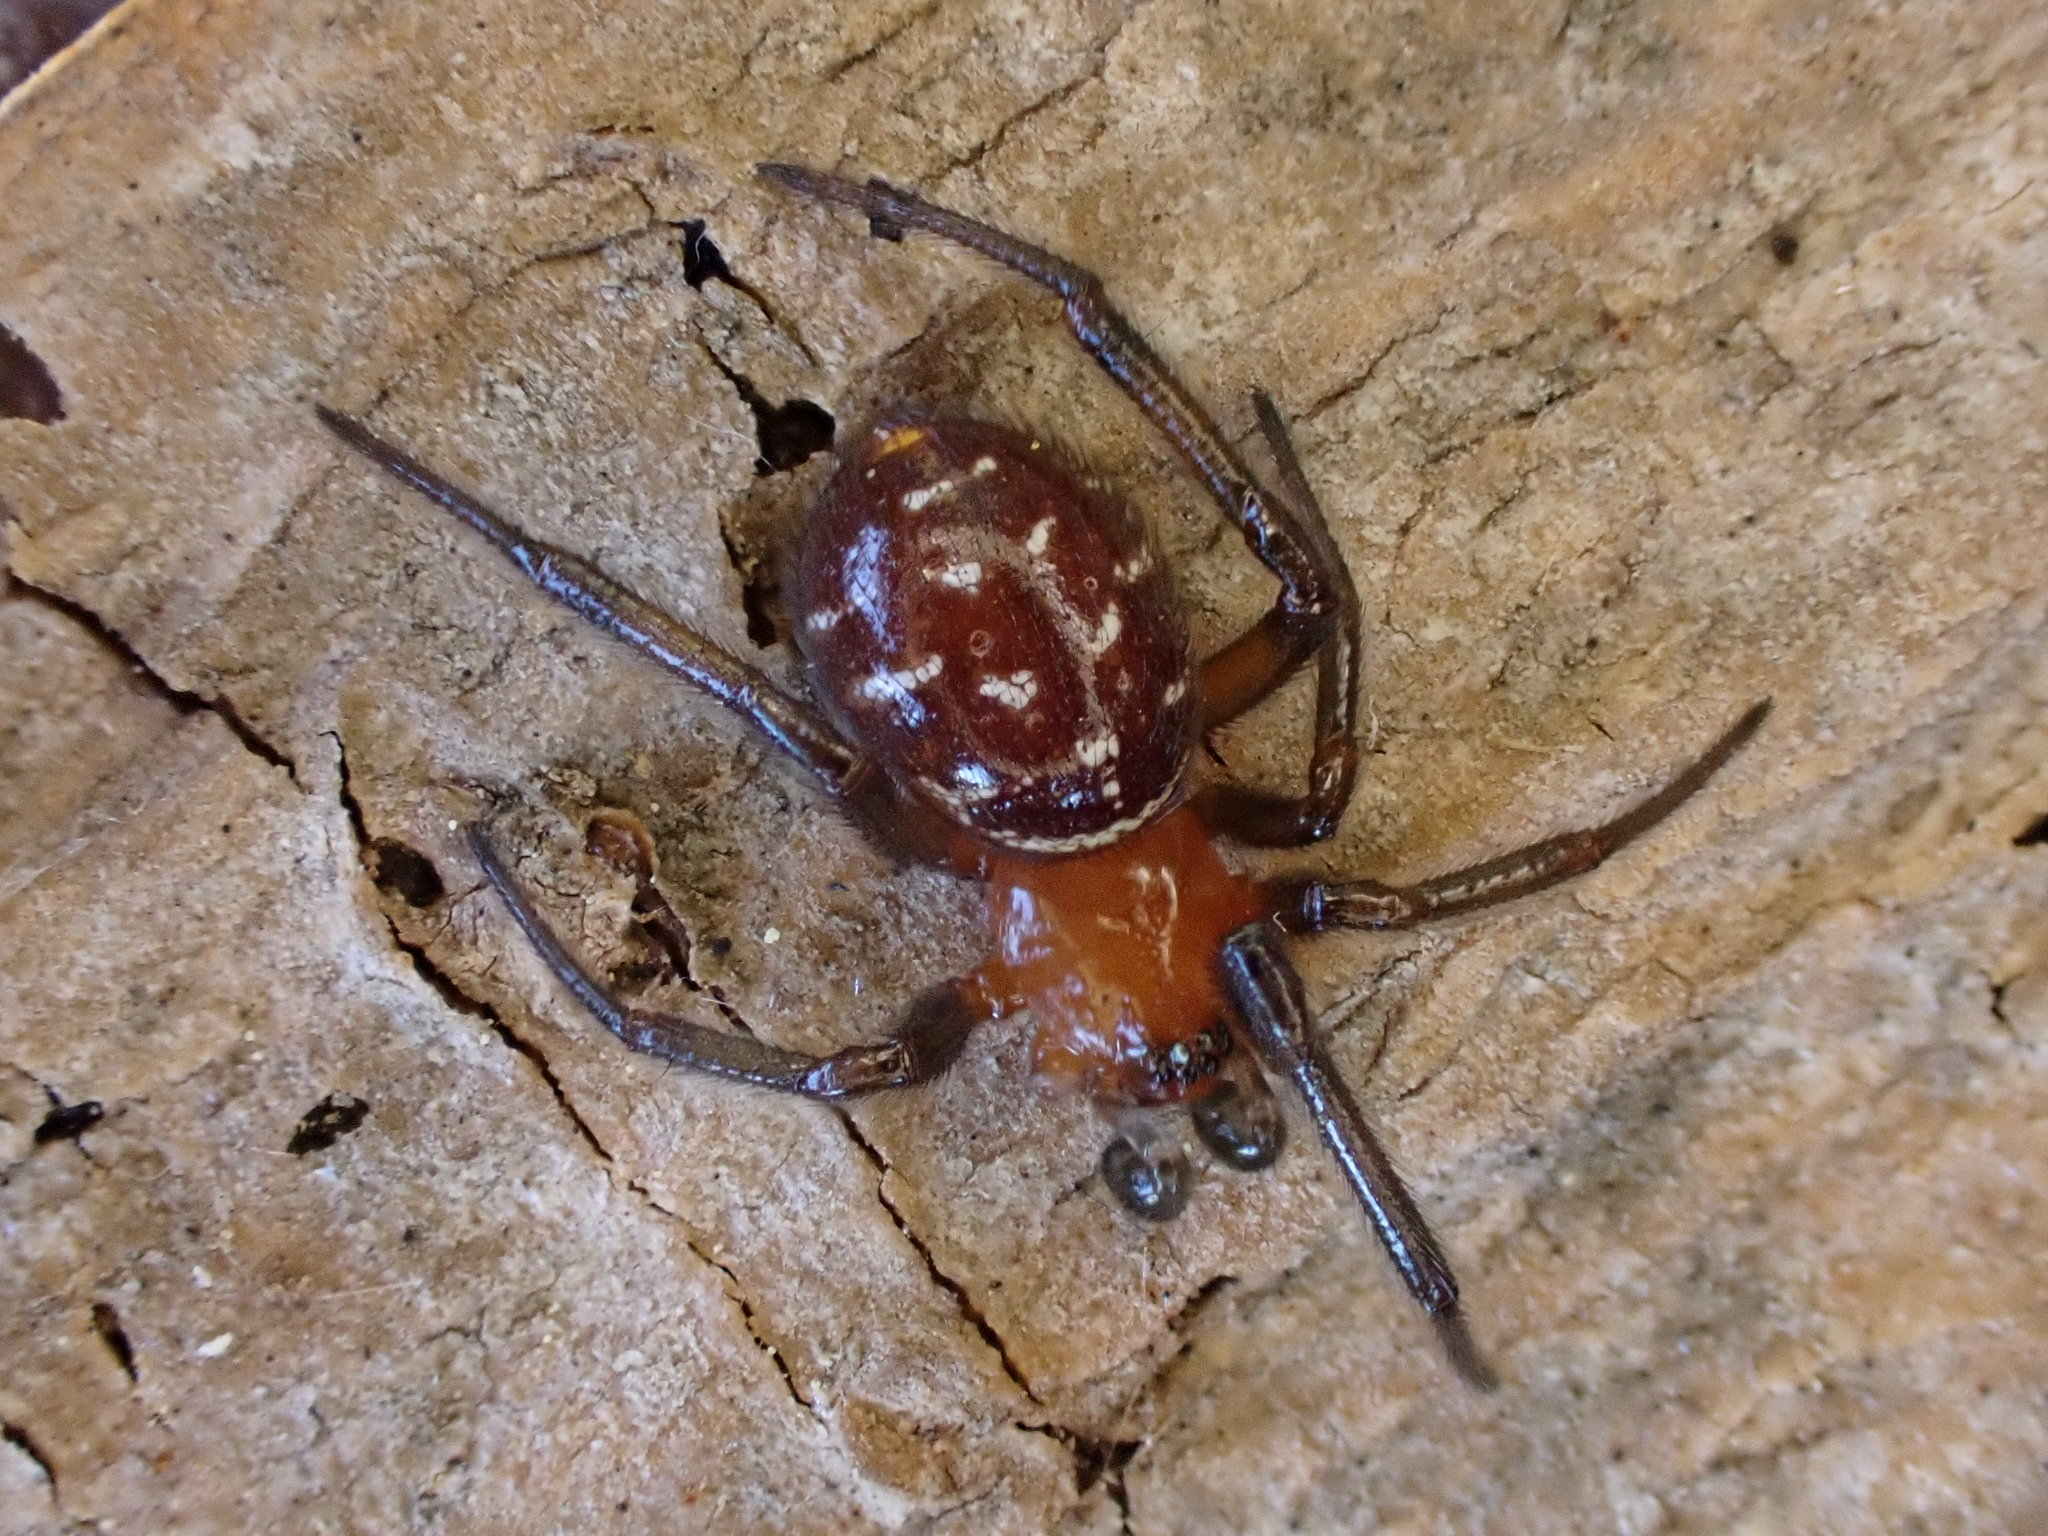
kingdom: Animalia
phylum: Arthropoda
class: Arachnida
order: Araneae
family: Theridiidae
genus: Steatoda
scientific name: Steatoda capensis
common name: Cobweb weaver
